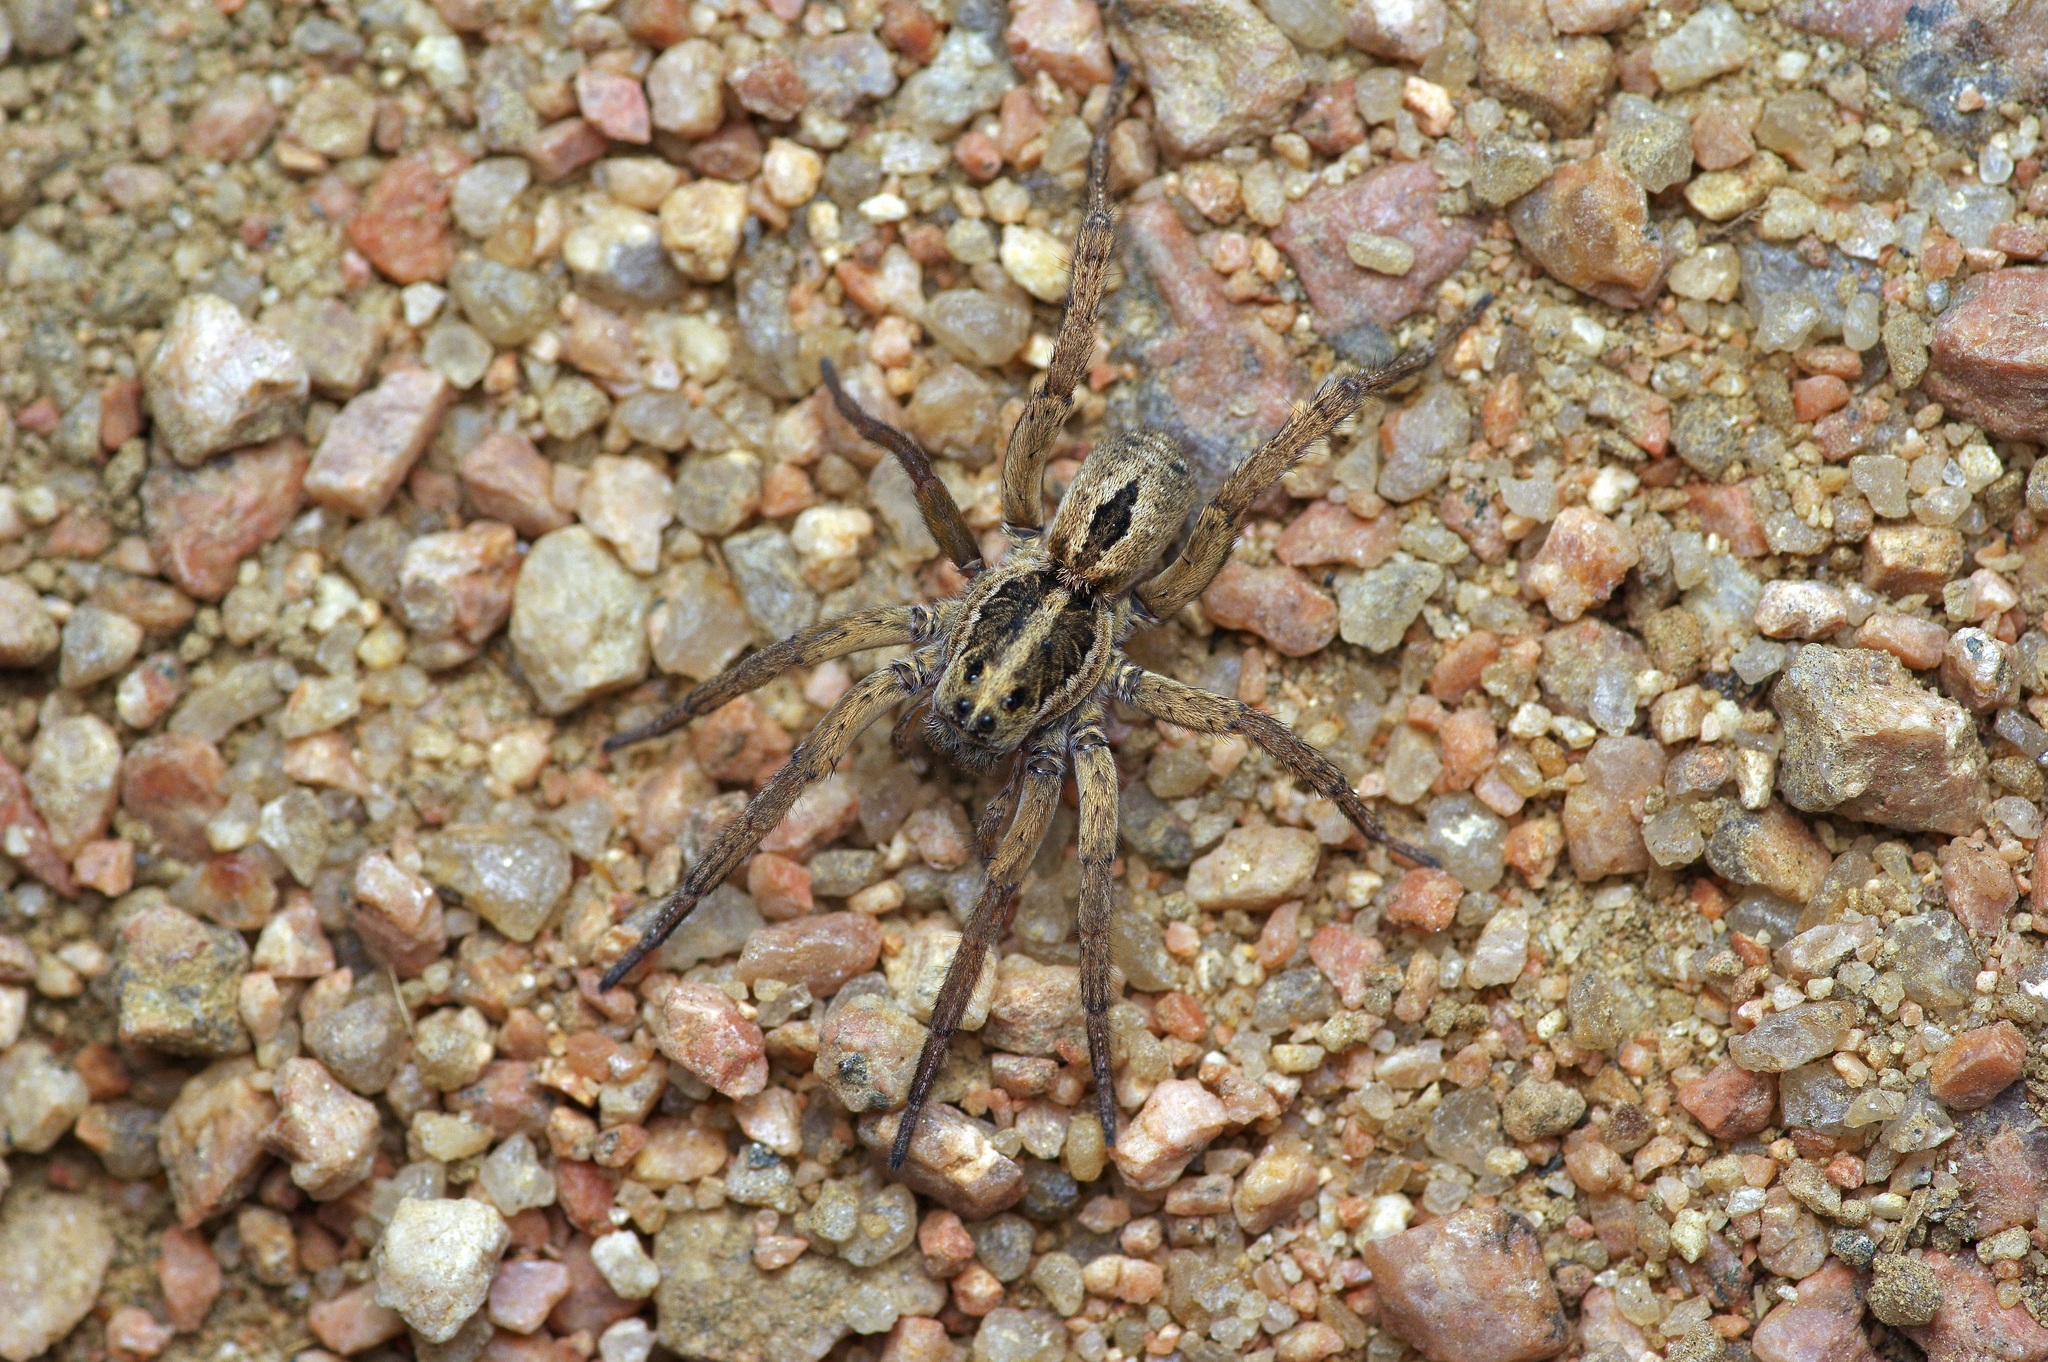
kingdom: Animalia
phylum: Arthropoda
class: Arachnida
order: Araneae
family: Lycosidae
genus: Tigrosa
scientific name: Tigrosa annexa
